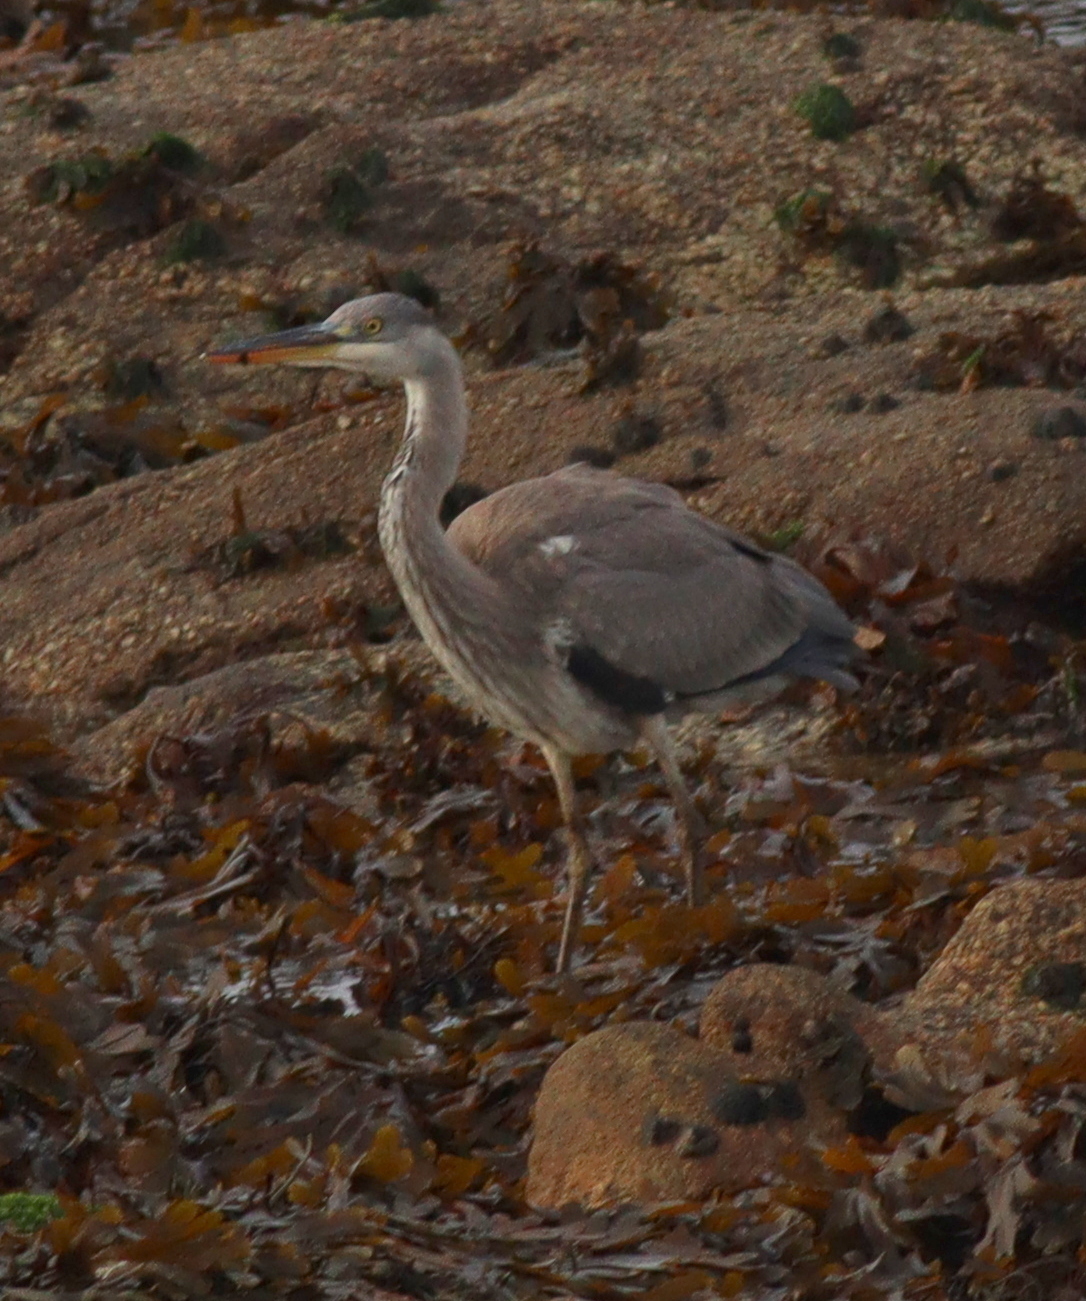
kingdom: Animalia
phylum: Chordata
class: Aves
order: Pelecaniformes
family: Ardeidae
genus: Ardea
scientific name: Ardea cinerea
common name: Grey heron
